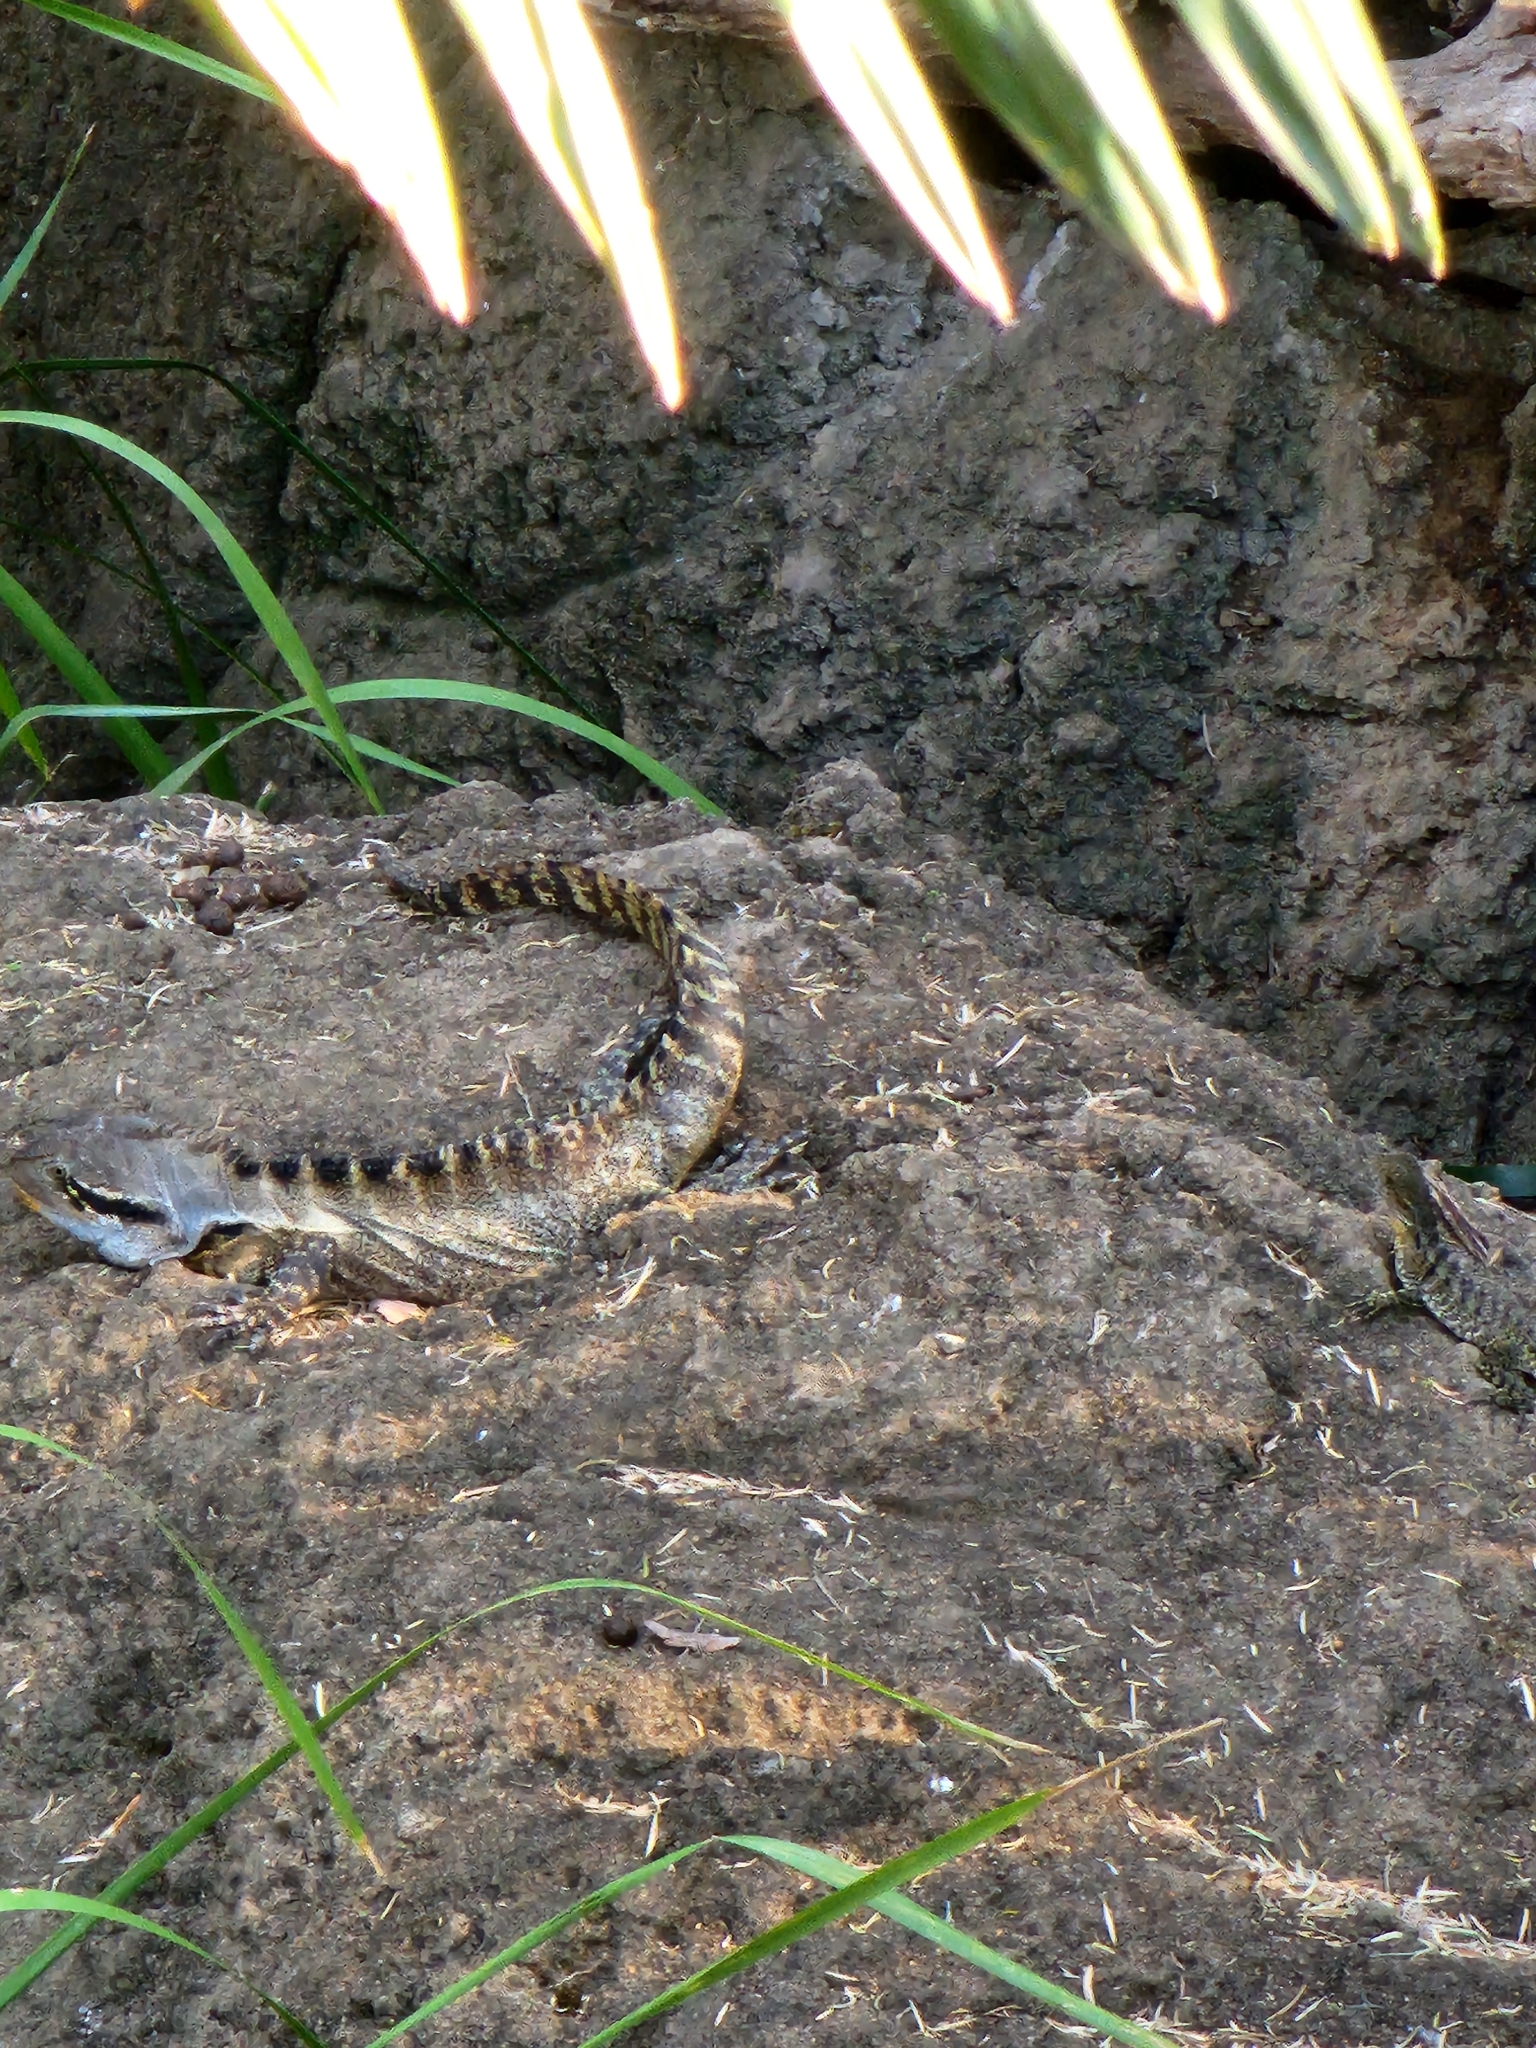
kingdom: Animalia
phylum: Chordata
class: Squamata
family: Agamidae
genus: Intellagama
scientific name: Intellagama lesueurii
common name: Eastern water dragon
